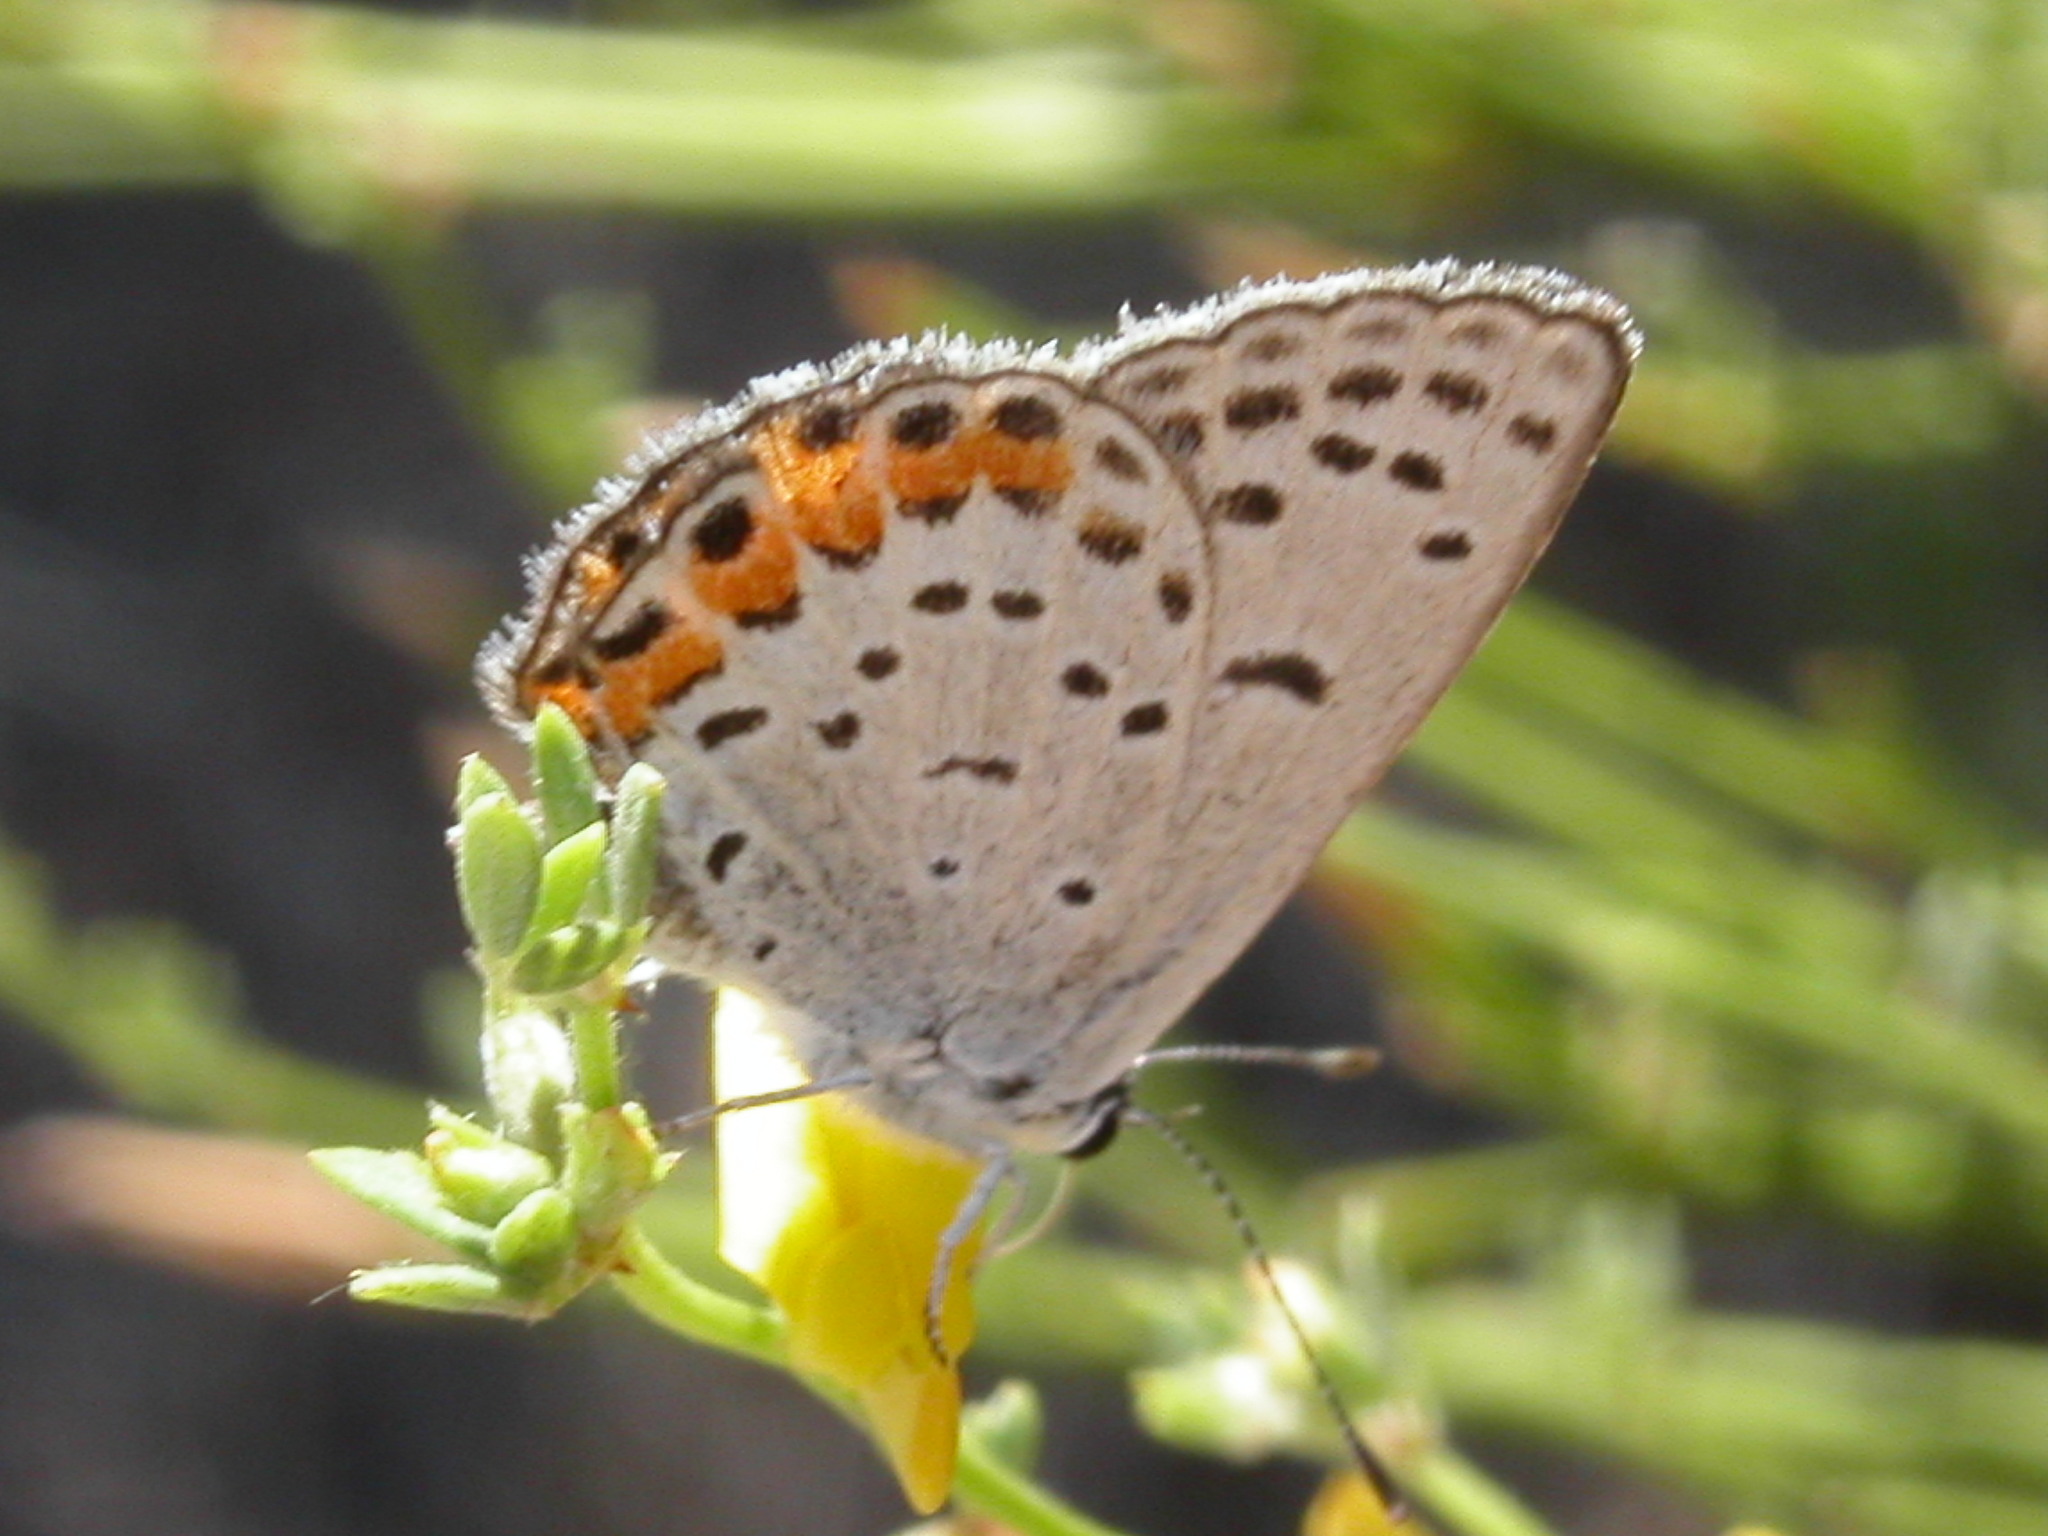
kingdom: Animalia
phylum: Arthropoda
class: Insecta
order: Lepidoptera
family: Lycaenidae
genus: Icaricia
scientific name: Icaricia acmon
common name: Acmon blue
